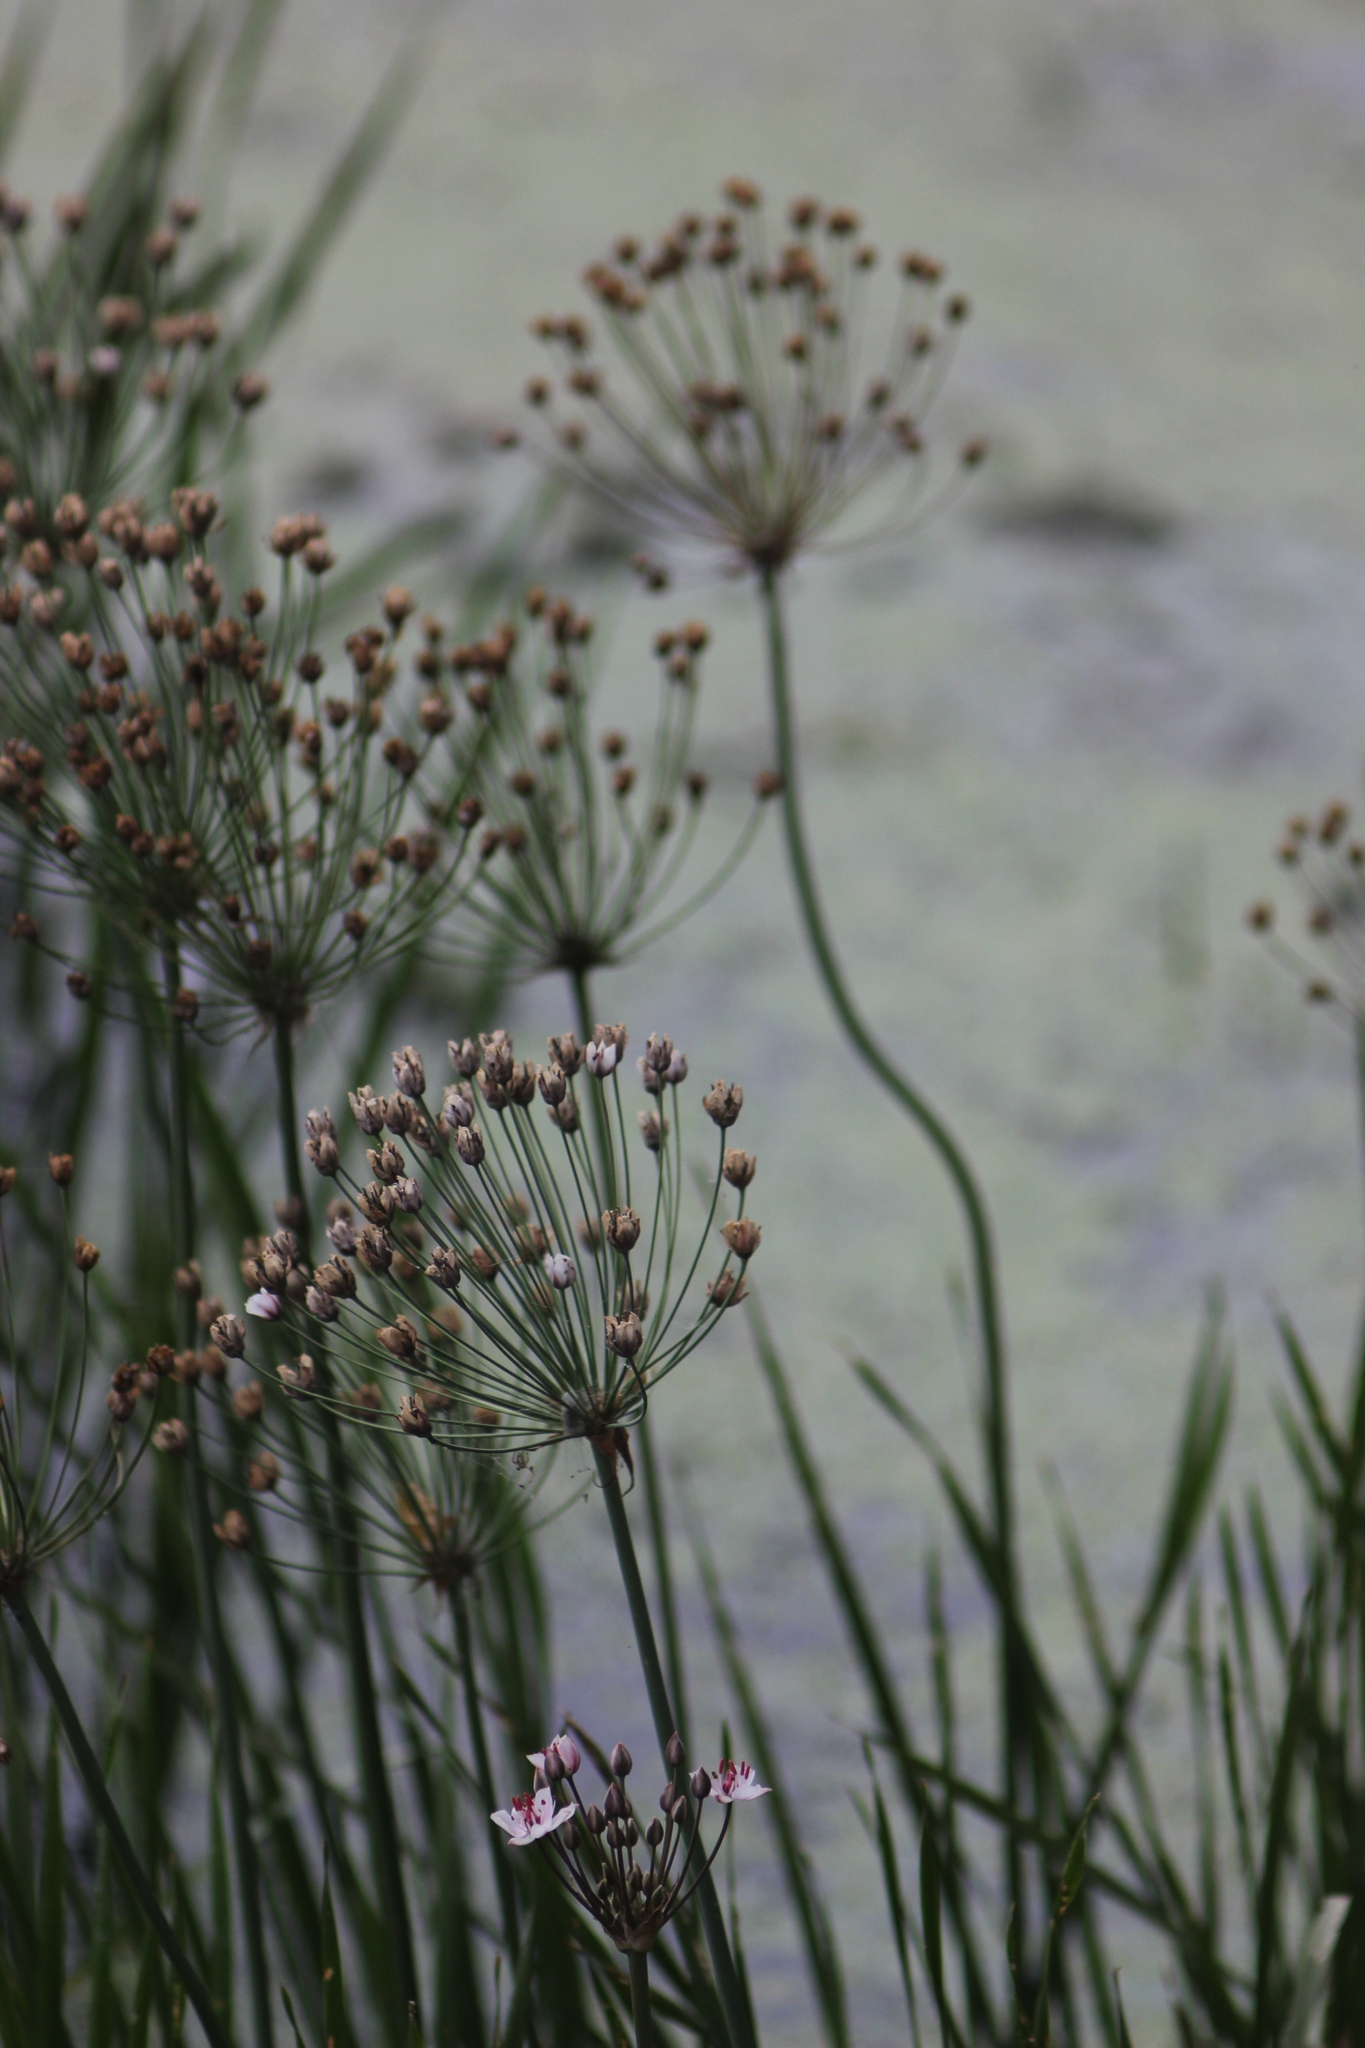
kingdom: Plantae
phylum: Tracheophyta
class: Liliopsida
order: Alismatales
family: Butomaceae
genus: Butomus
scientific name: Butomus umbellatus
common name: Flowering-rush
